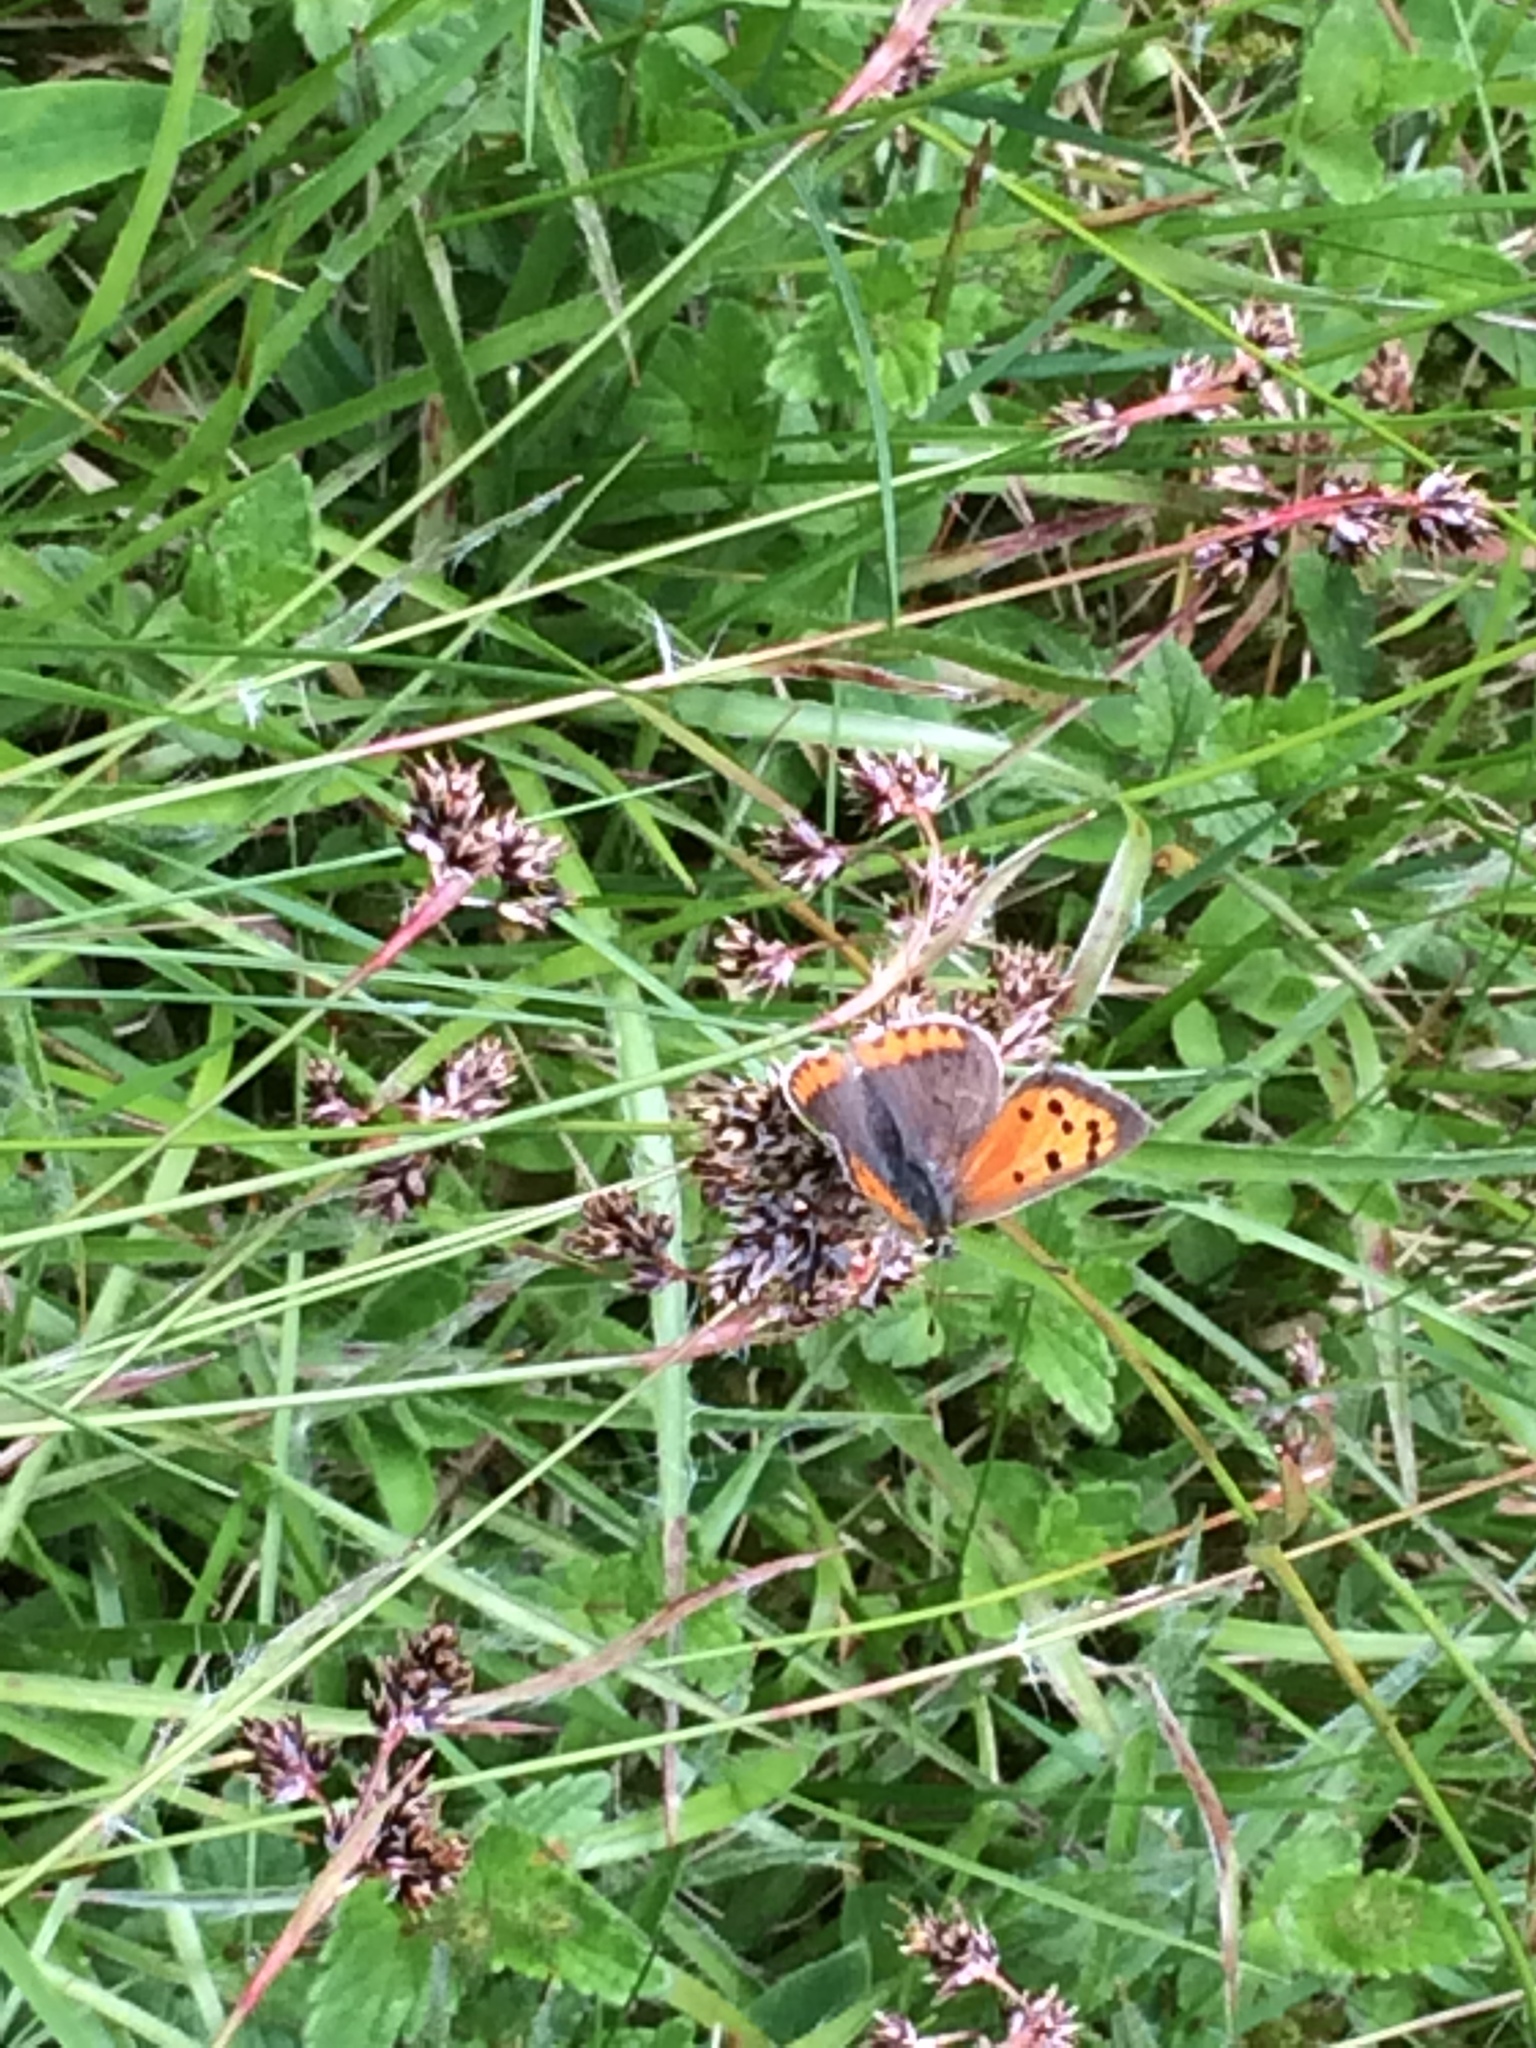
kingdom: Animalia
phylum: Arthropoda
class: Insecta
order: Lepidoptera
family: Lycaenidae
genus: Lycaena
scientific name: Lycaena phlaeas
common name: Small copper
